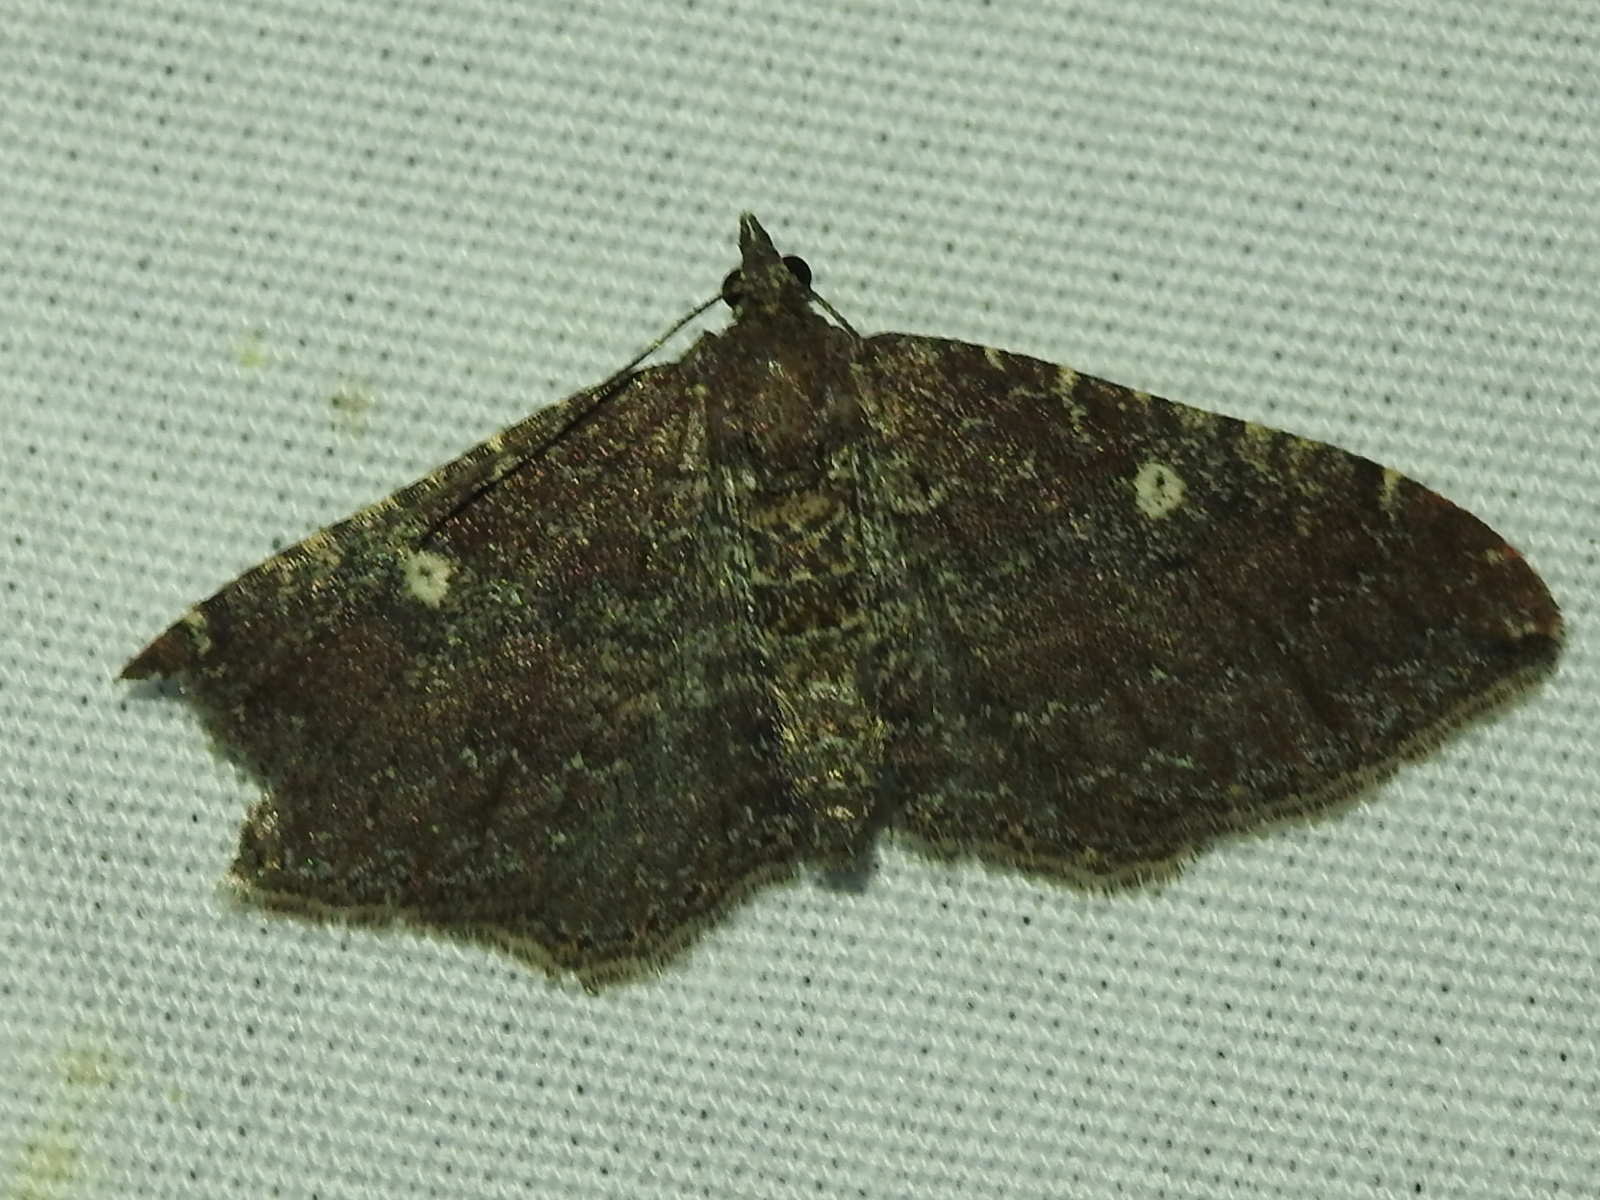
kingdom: Animalia
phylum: Arthropoda
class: Insecta
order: Lepidoptera
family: Geometridae
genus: Orthonama
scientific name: Orthonama obstipata
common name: The gem
